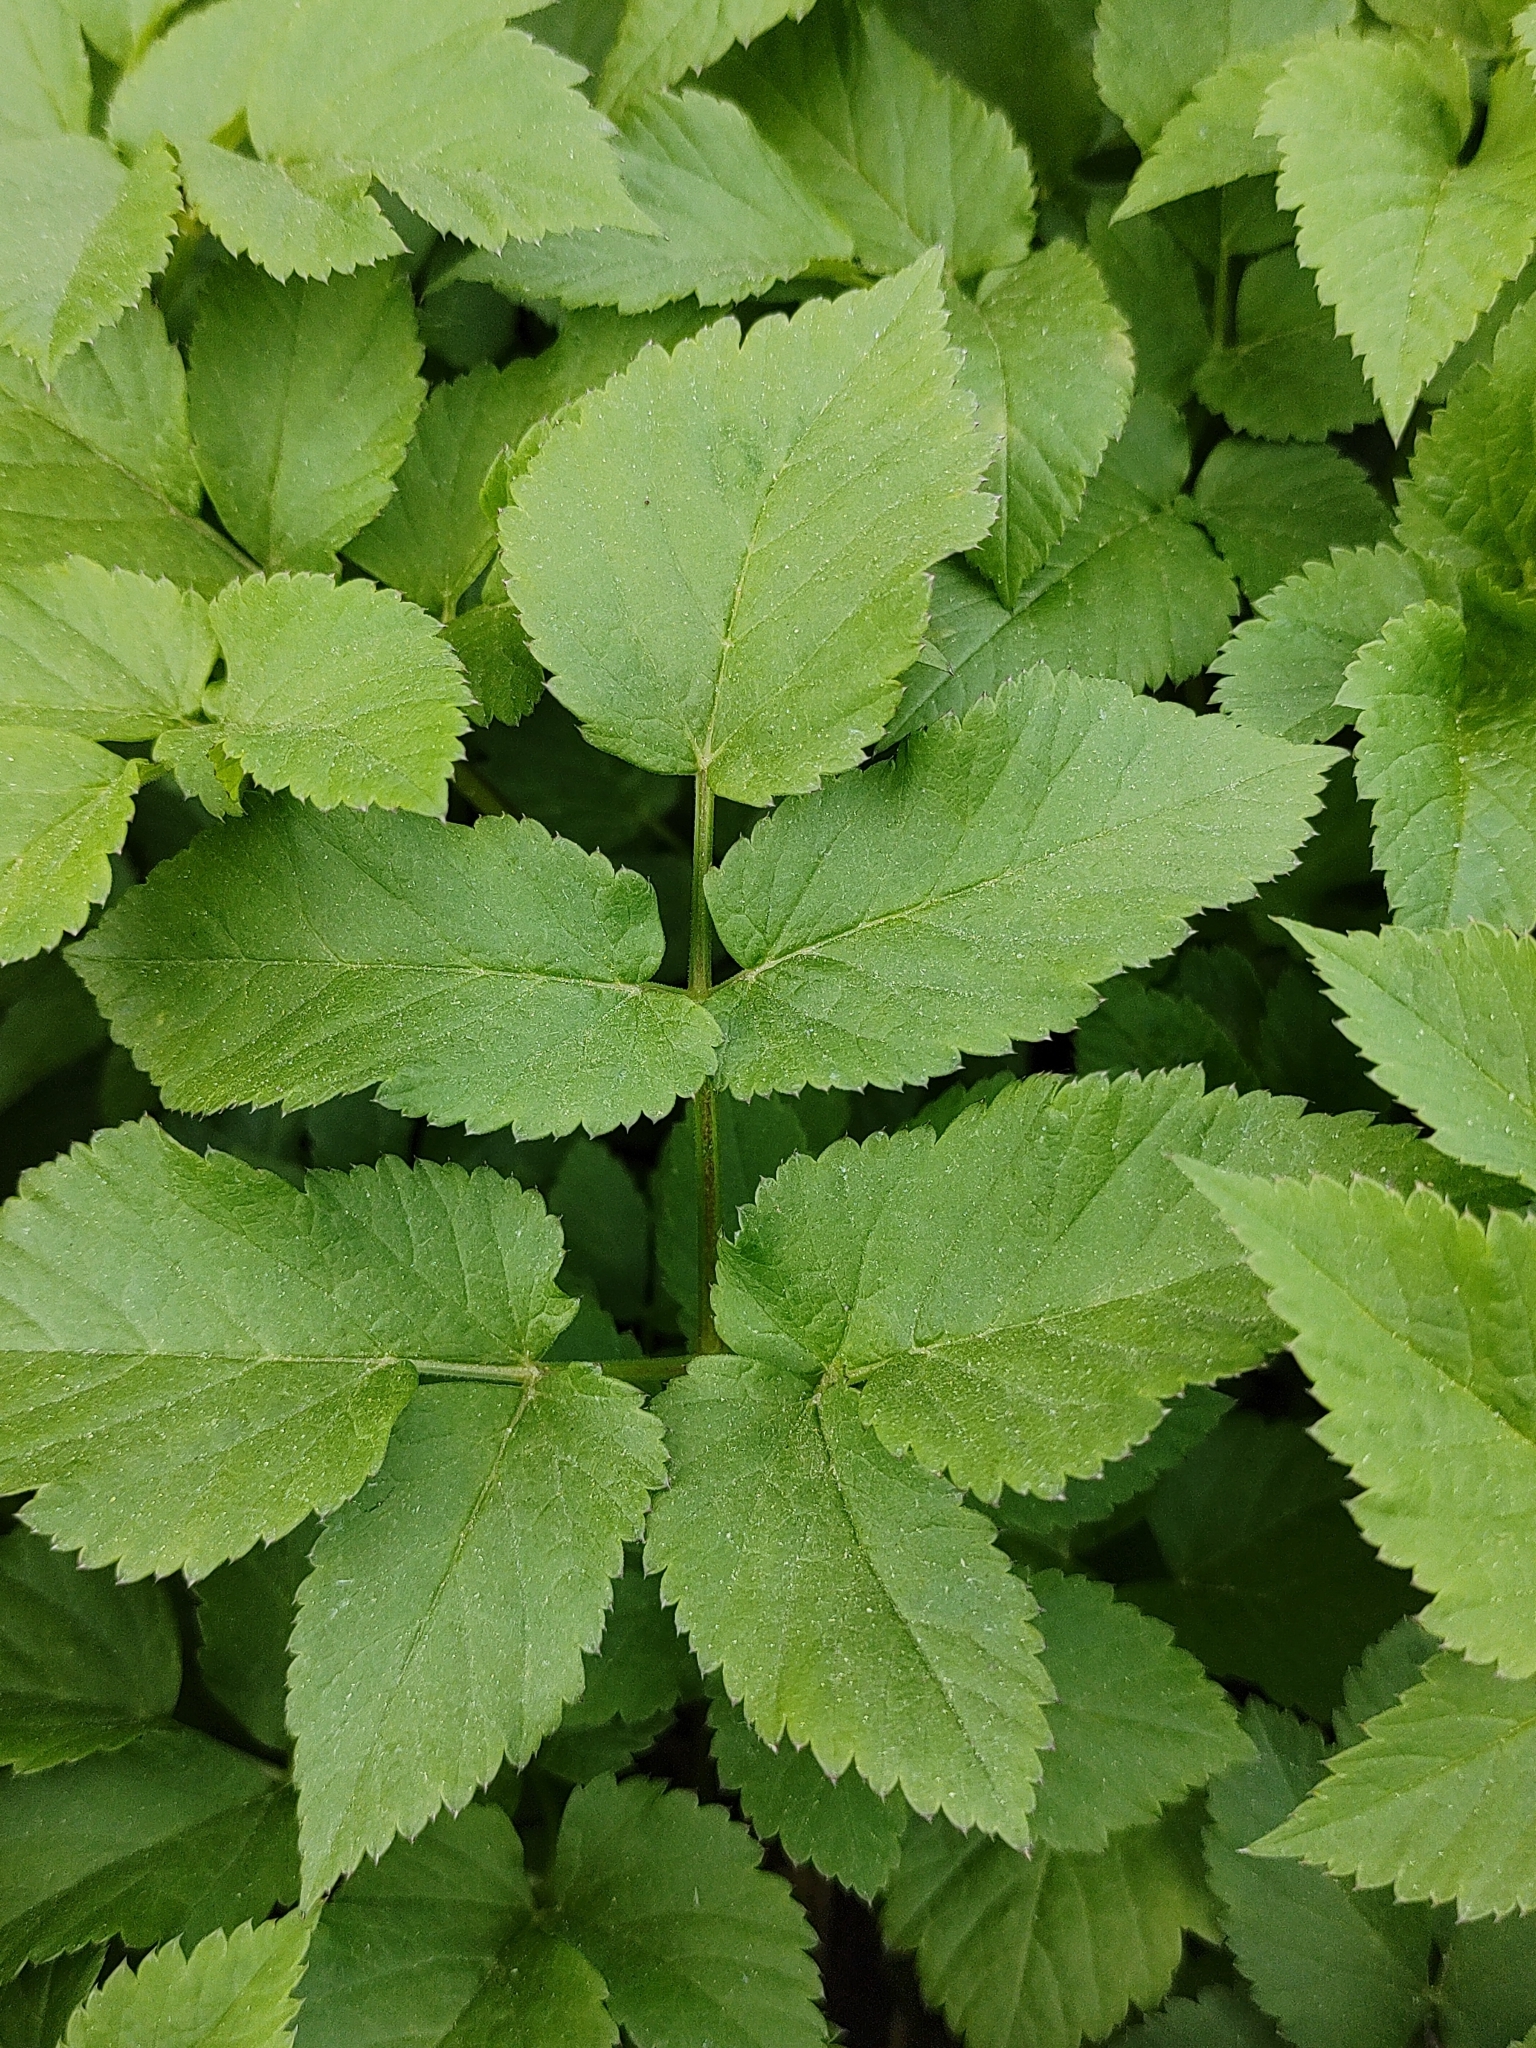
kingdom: Plantae
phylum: Tracheophyta
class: Magnoliopsida
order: Apiales
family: Apiaceae
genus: Aegopodium
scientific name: Aegopodium podagraria
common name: Ground-elder
